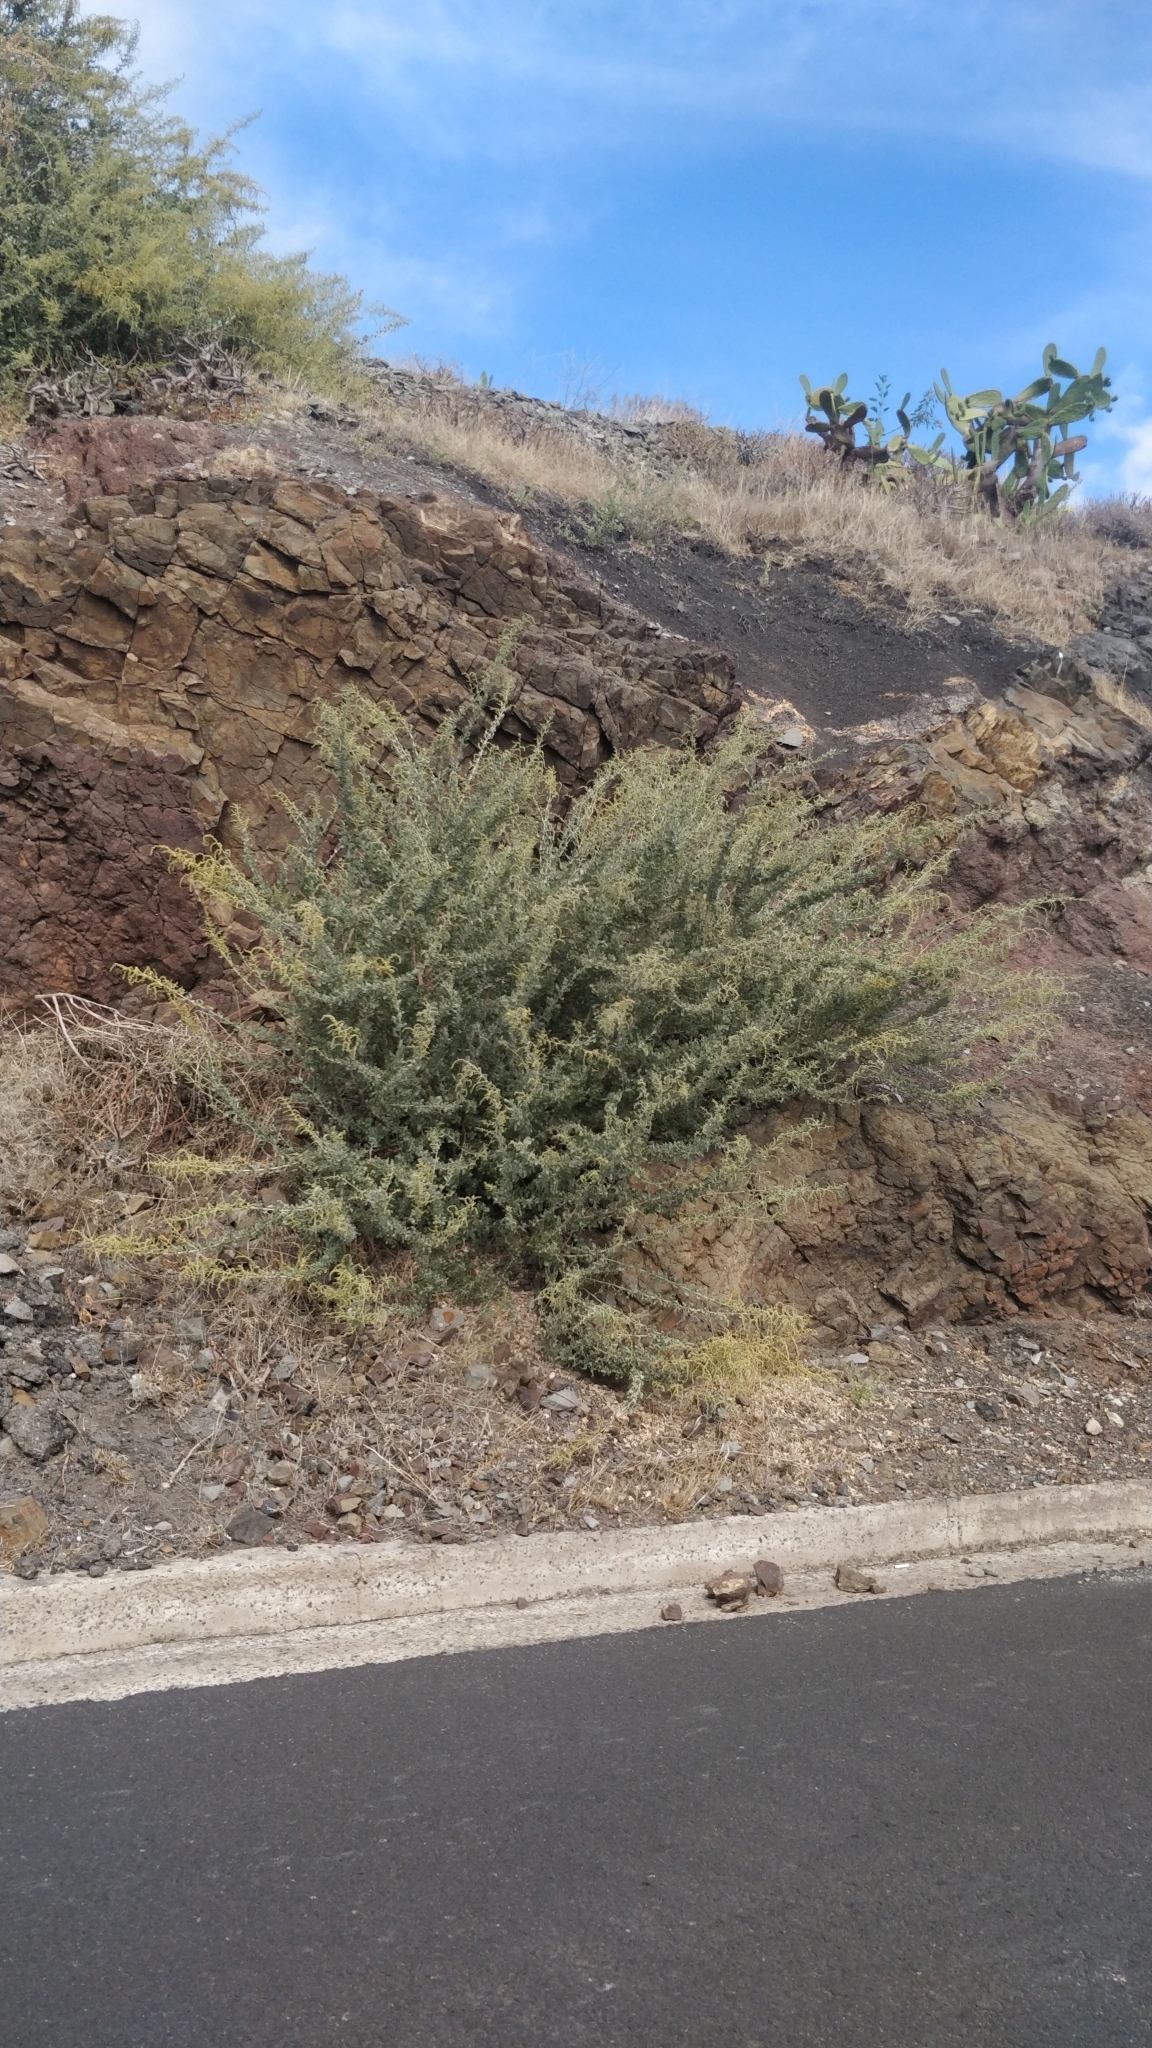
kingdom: Plantae
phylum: Tracheophyta
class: Magnoliopsida
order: Caryophyllales
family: Amaranthaceae
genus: Atriplex
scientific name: Atriplex halimus
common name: Shrubby orache
